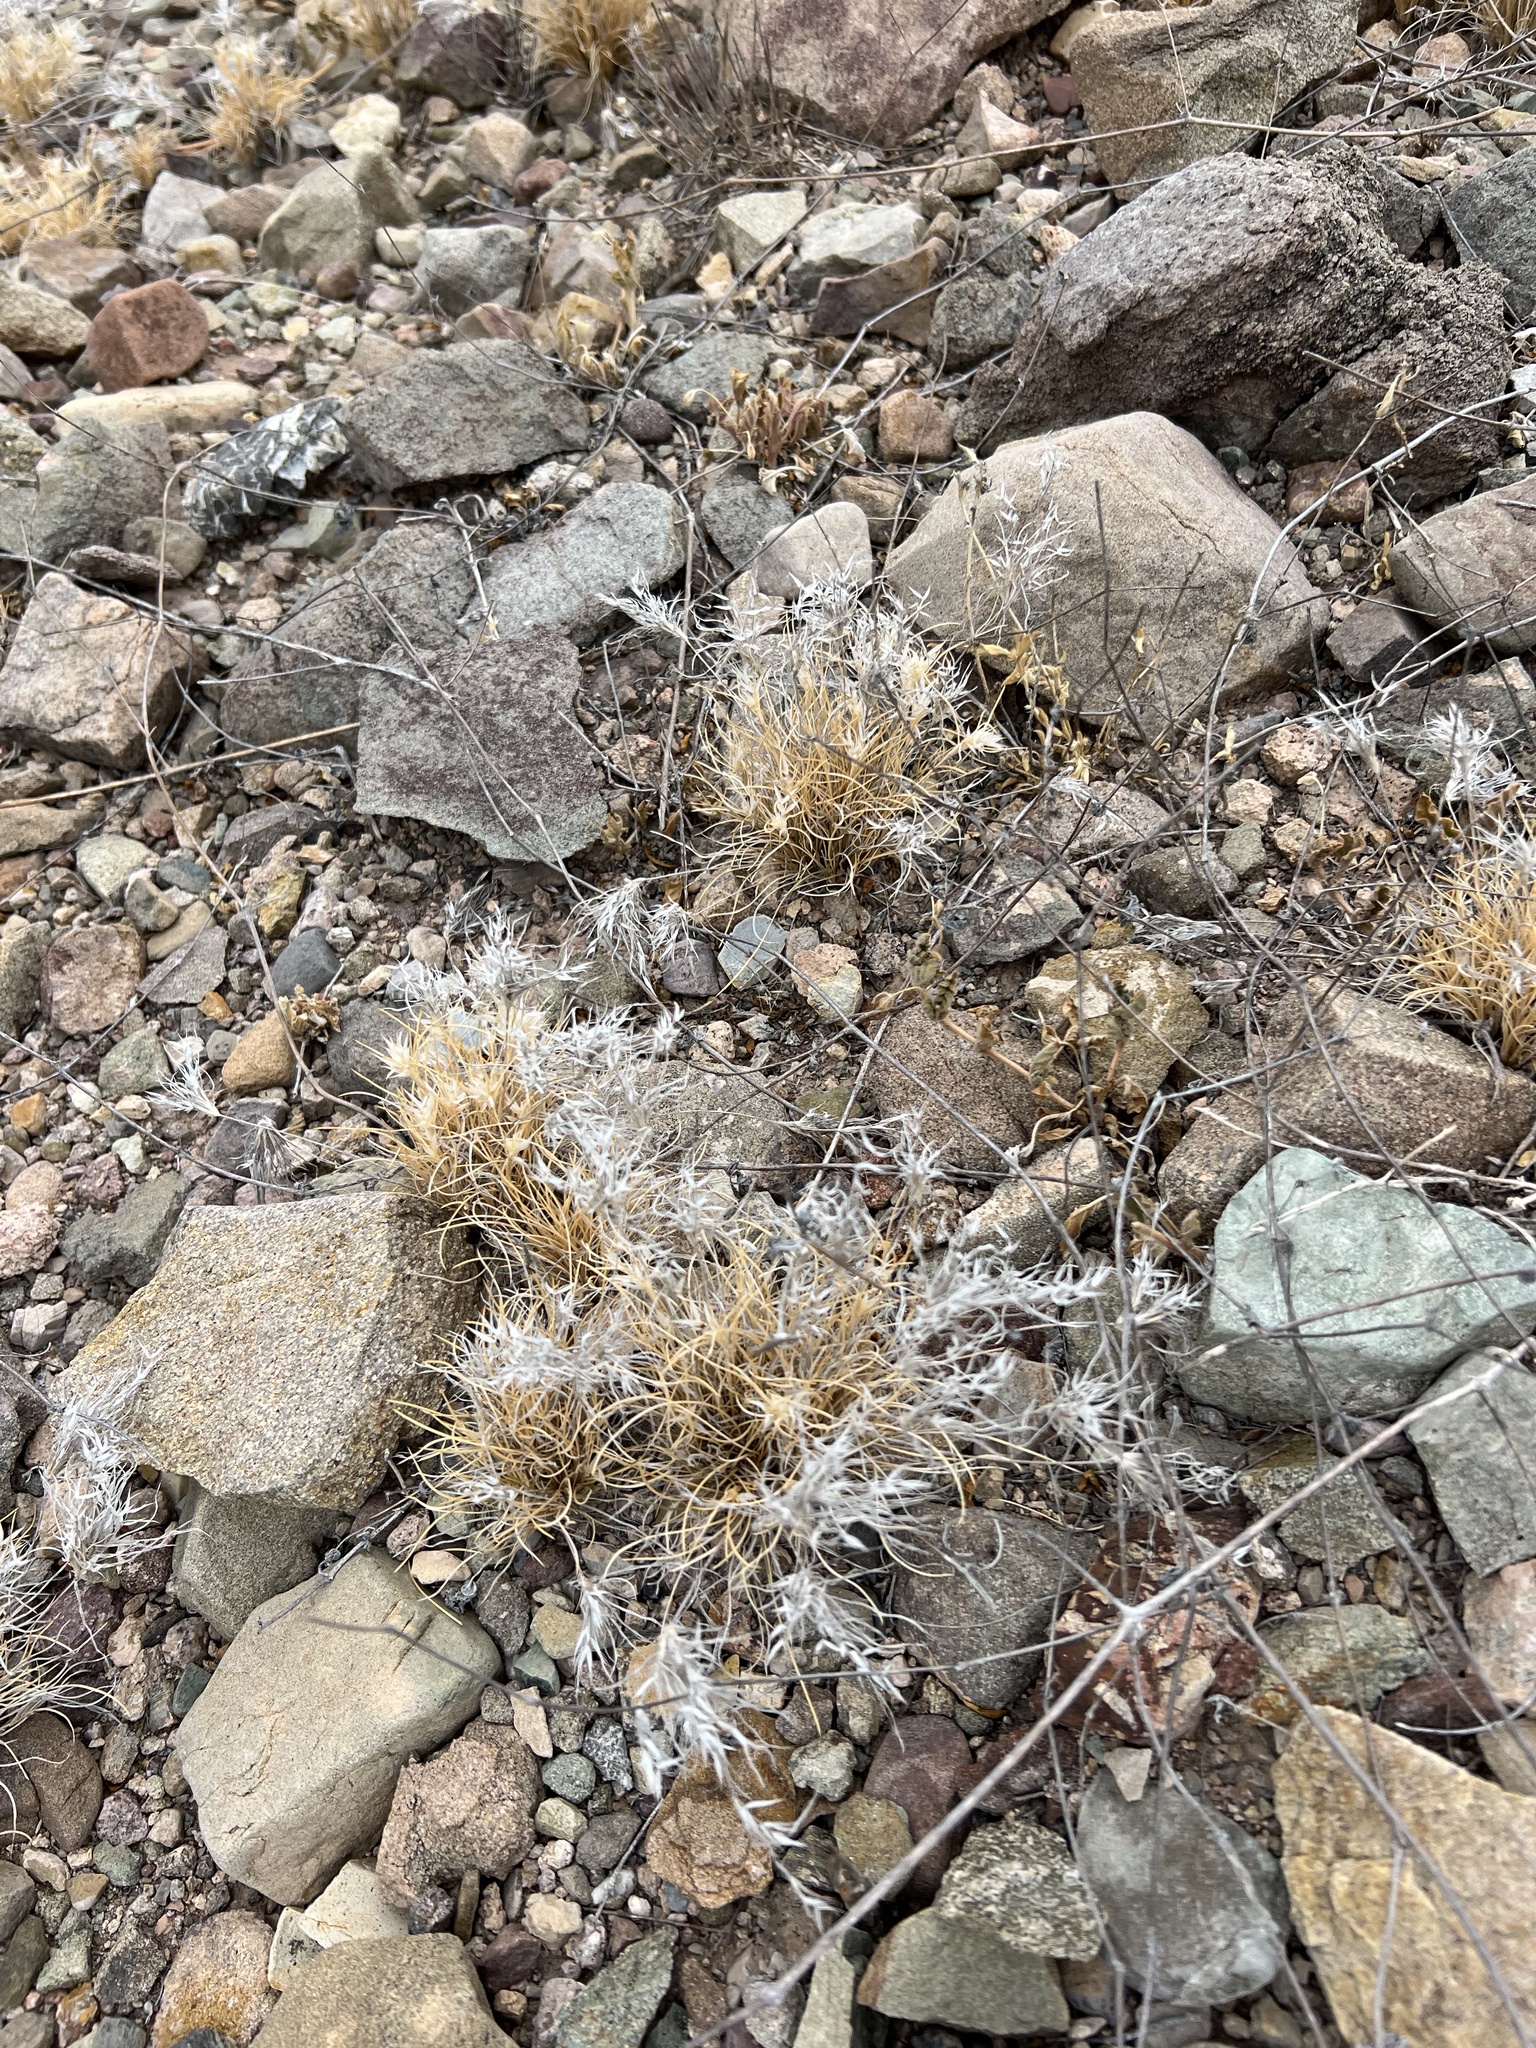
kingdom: Plantae
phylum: Tracheophyta
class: Liliopsida
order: Poales
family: Poaceae
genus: Dasyochloa
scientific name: Dasyochloa pulchella
